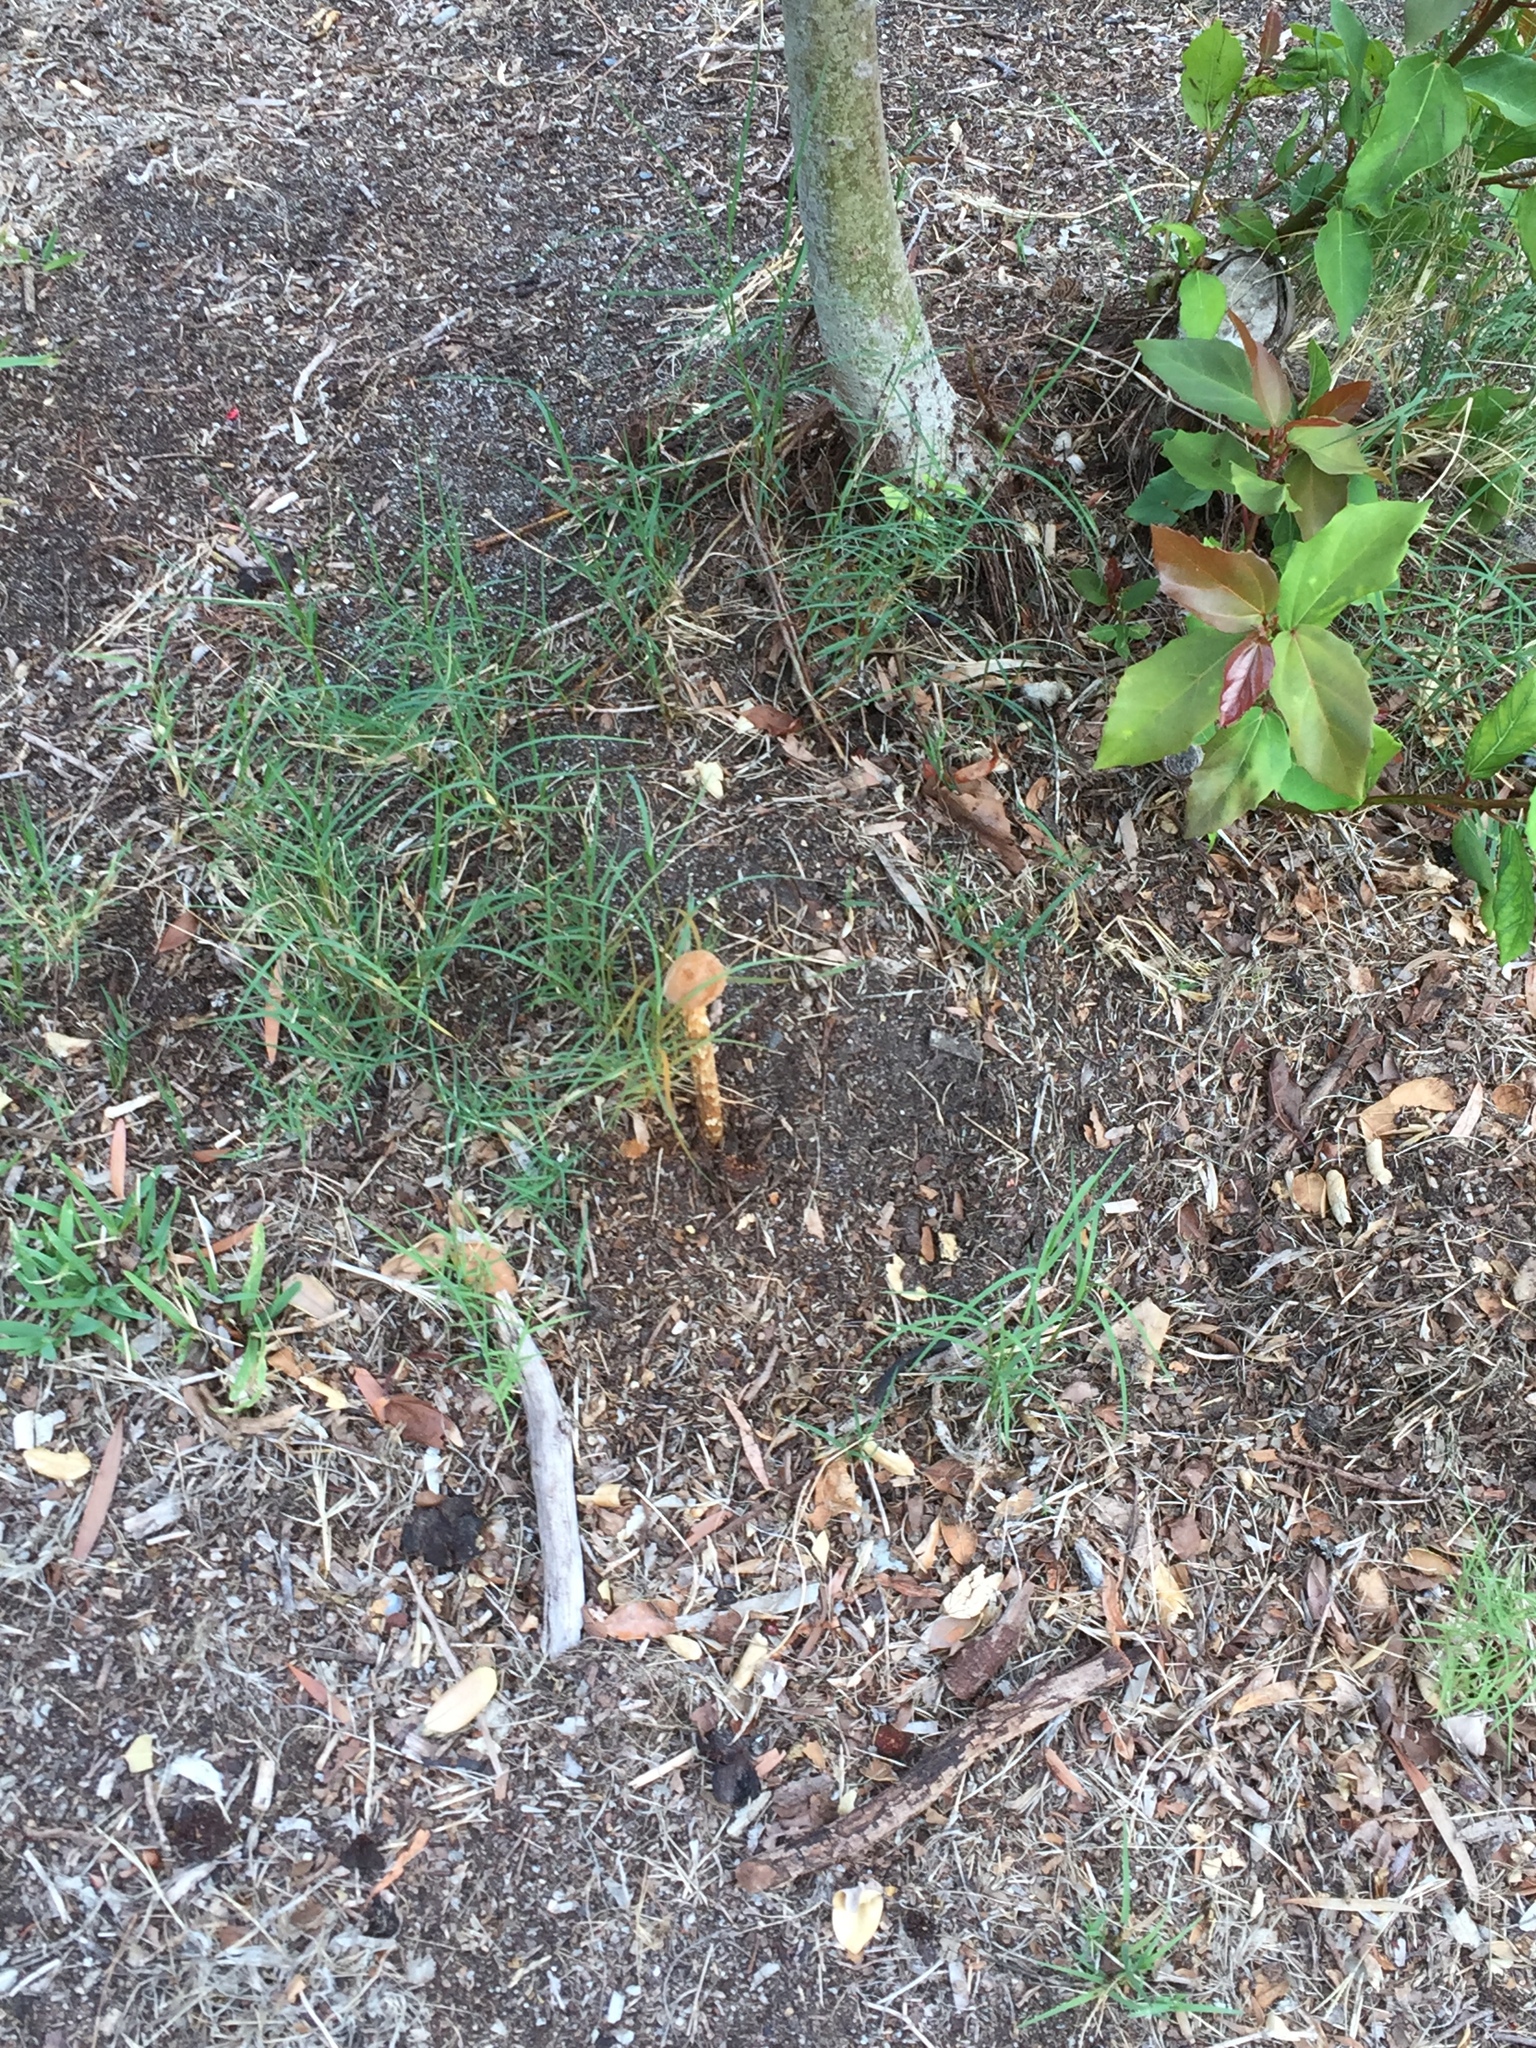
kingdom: Fungi
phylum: Basidiomycota
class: Agaricomycetes
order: Agaricales
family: Agaricaceae
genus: Battarrea
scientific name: Battarrea phalloides
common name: Sandy stiltball
